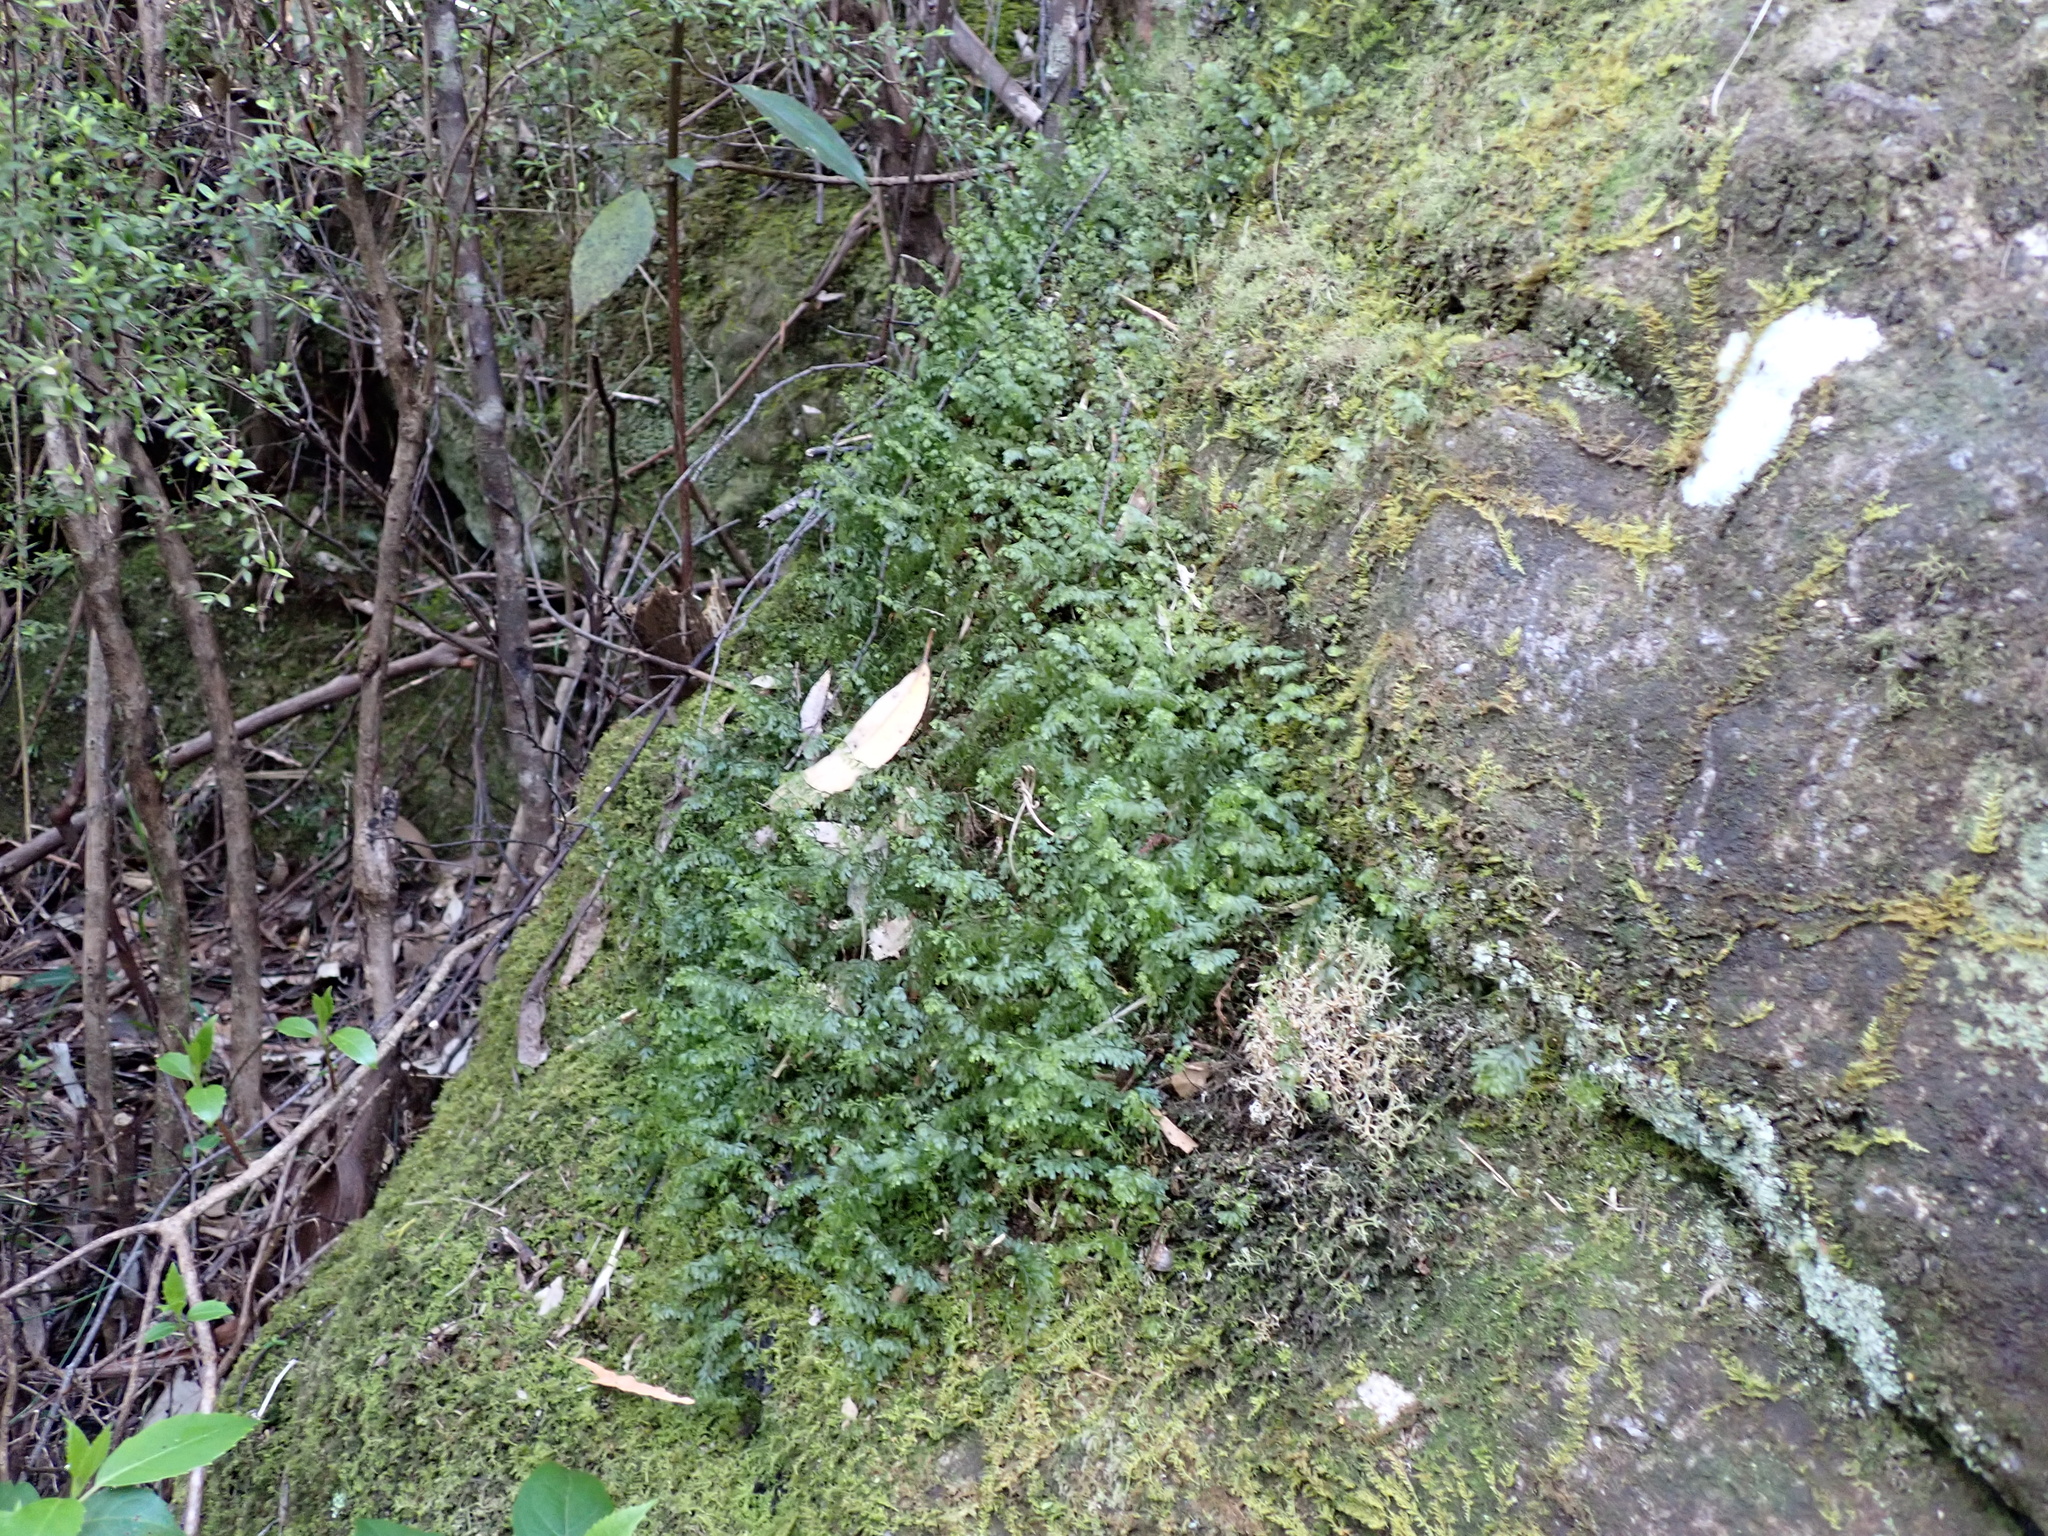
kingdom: Plantae
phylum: Tracheophyta
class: Polypodiopsida
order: Hymenophyllales
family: Hymenophyllaceae
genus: Hymenophyllum
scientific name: Hymenophyllum rarum
